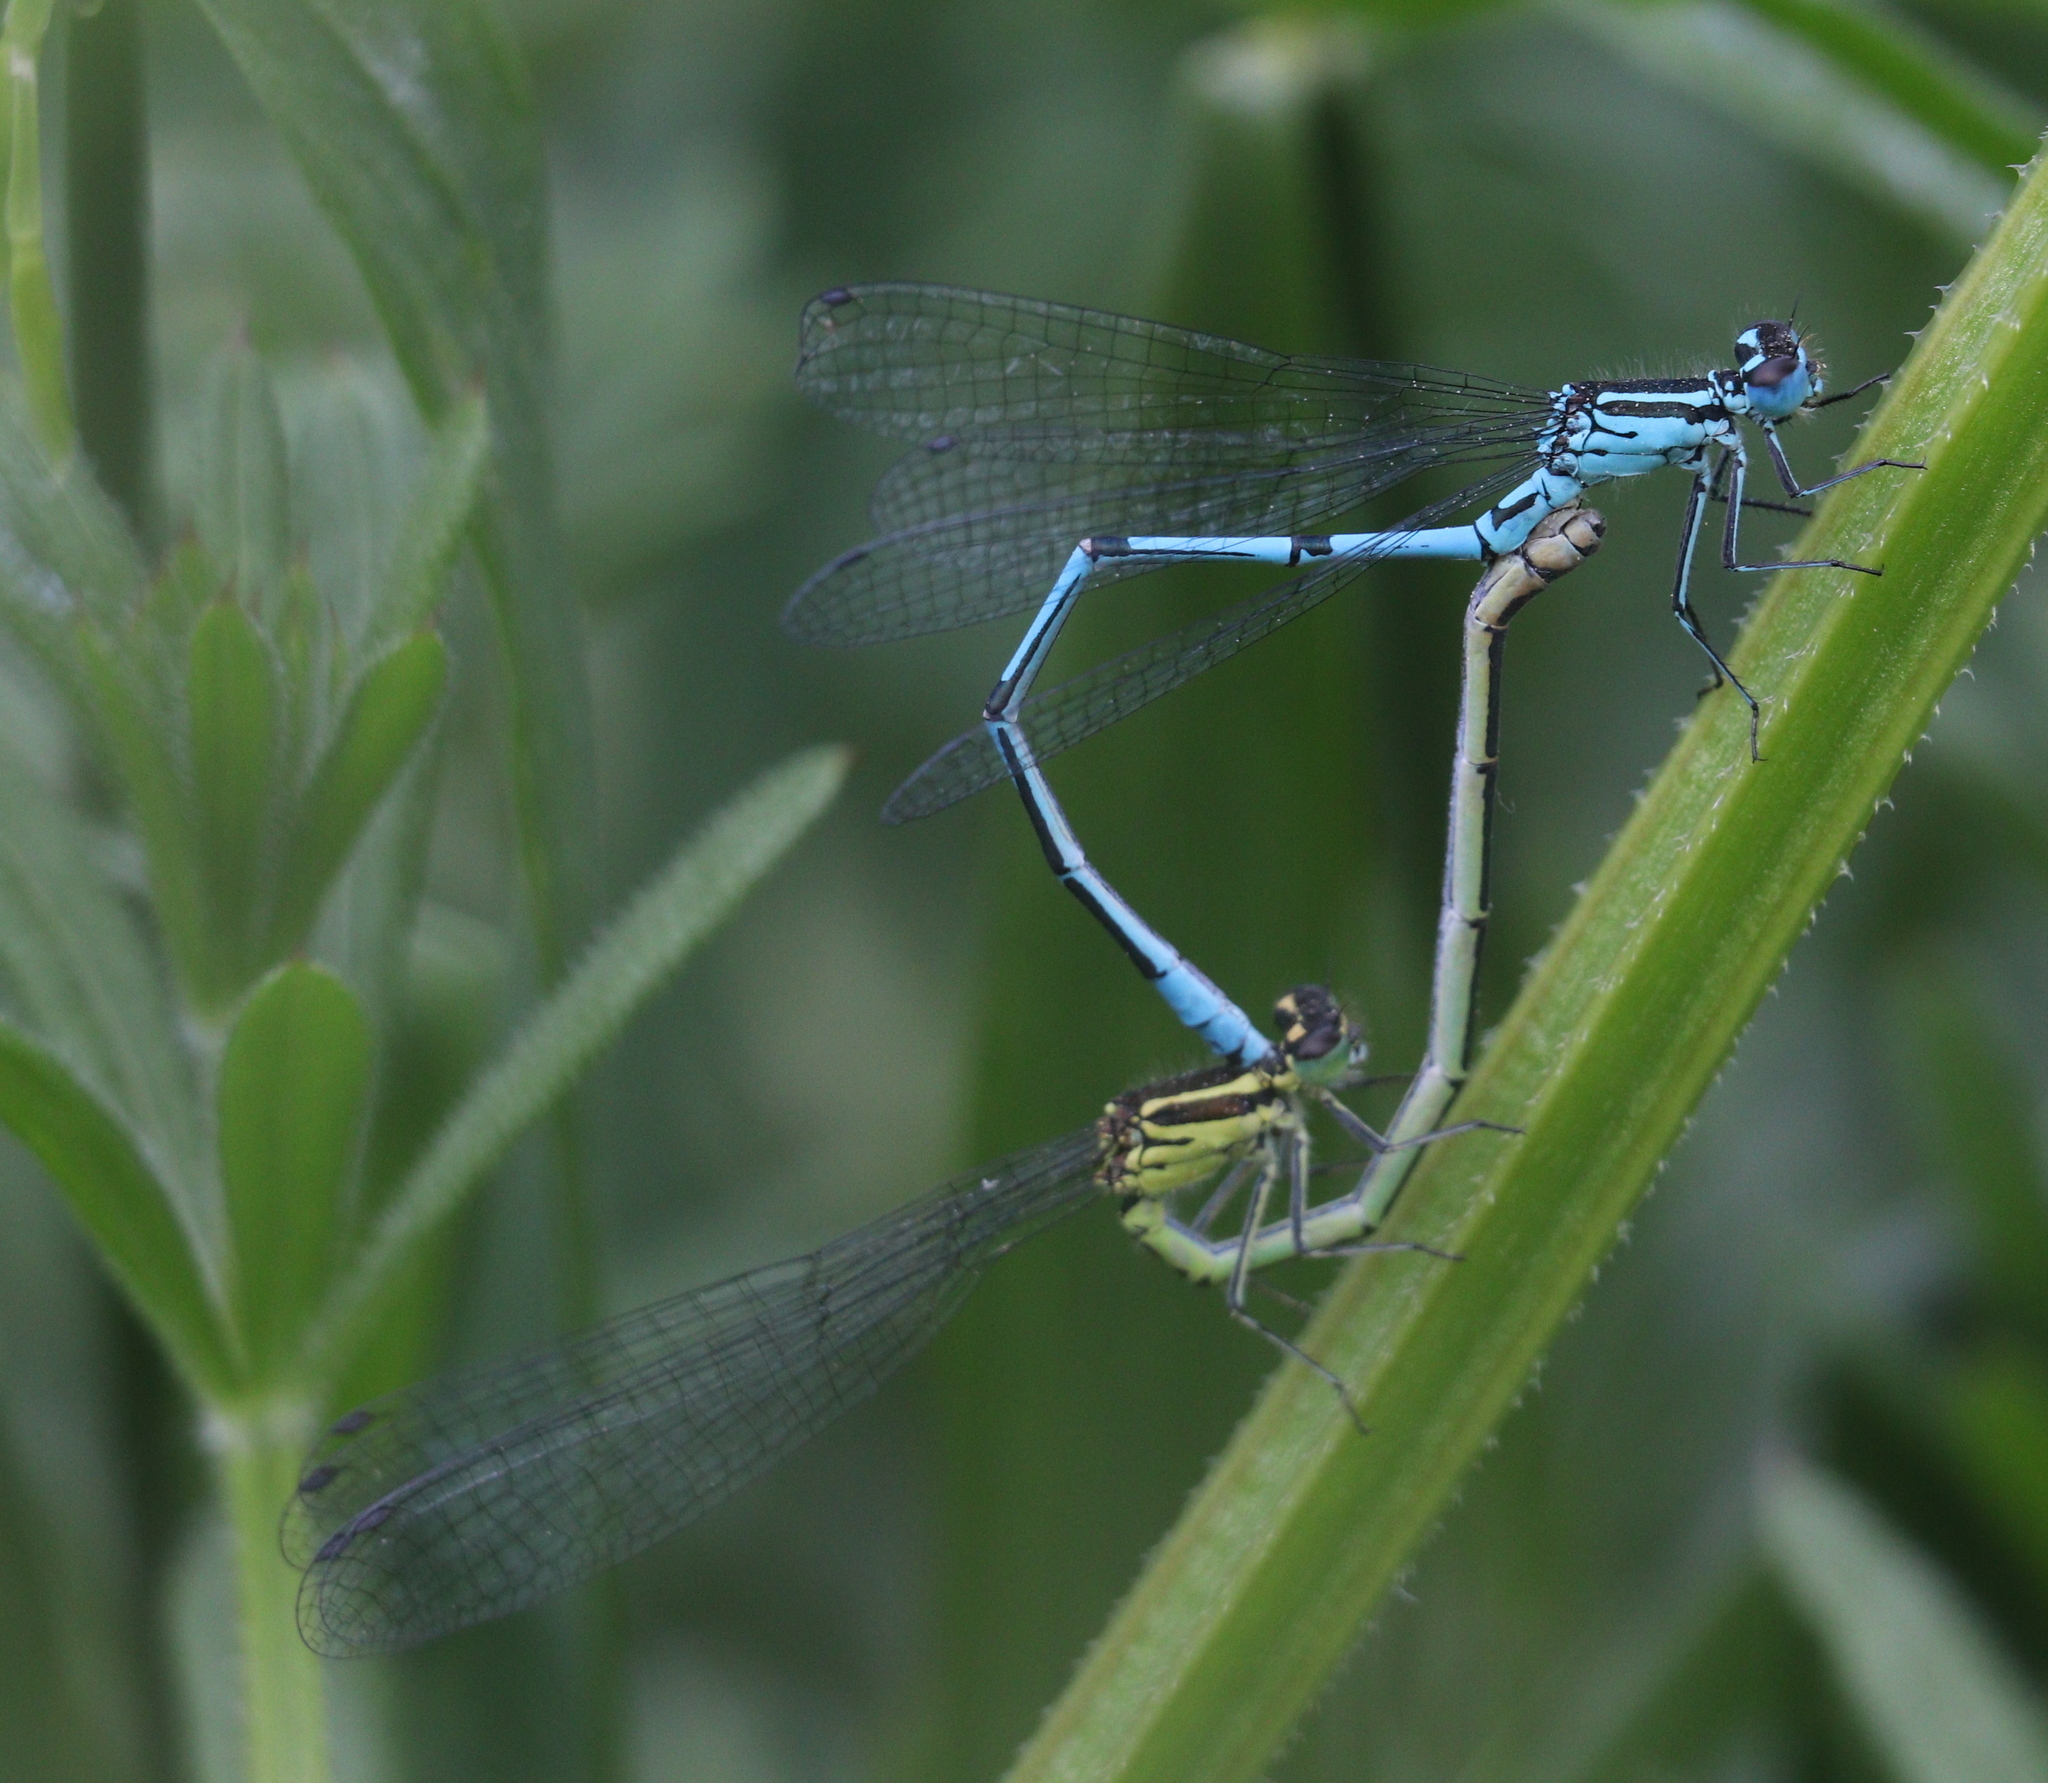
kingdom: Animalia
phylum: Arthropoda
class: Insecta
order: Odonata
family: Coenagrionidae
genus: Coenagrion
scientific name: Coenagrion puella
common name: Azure damselfly
